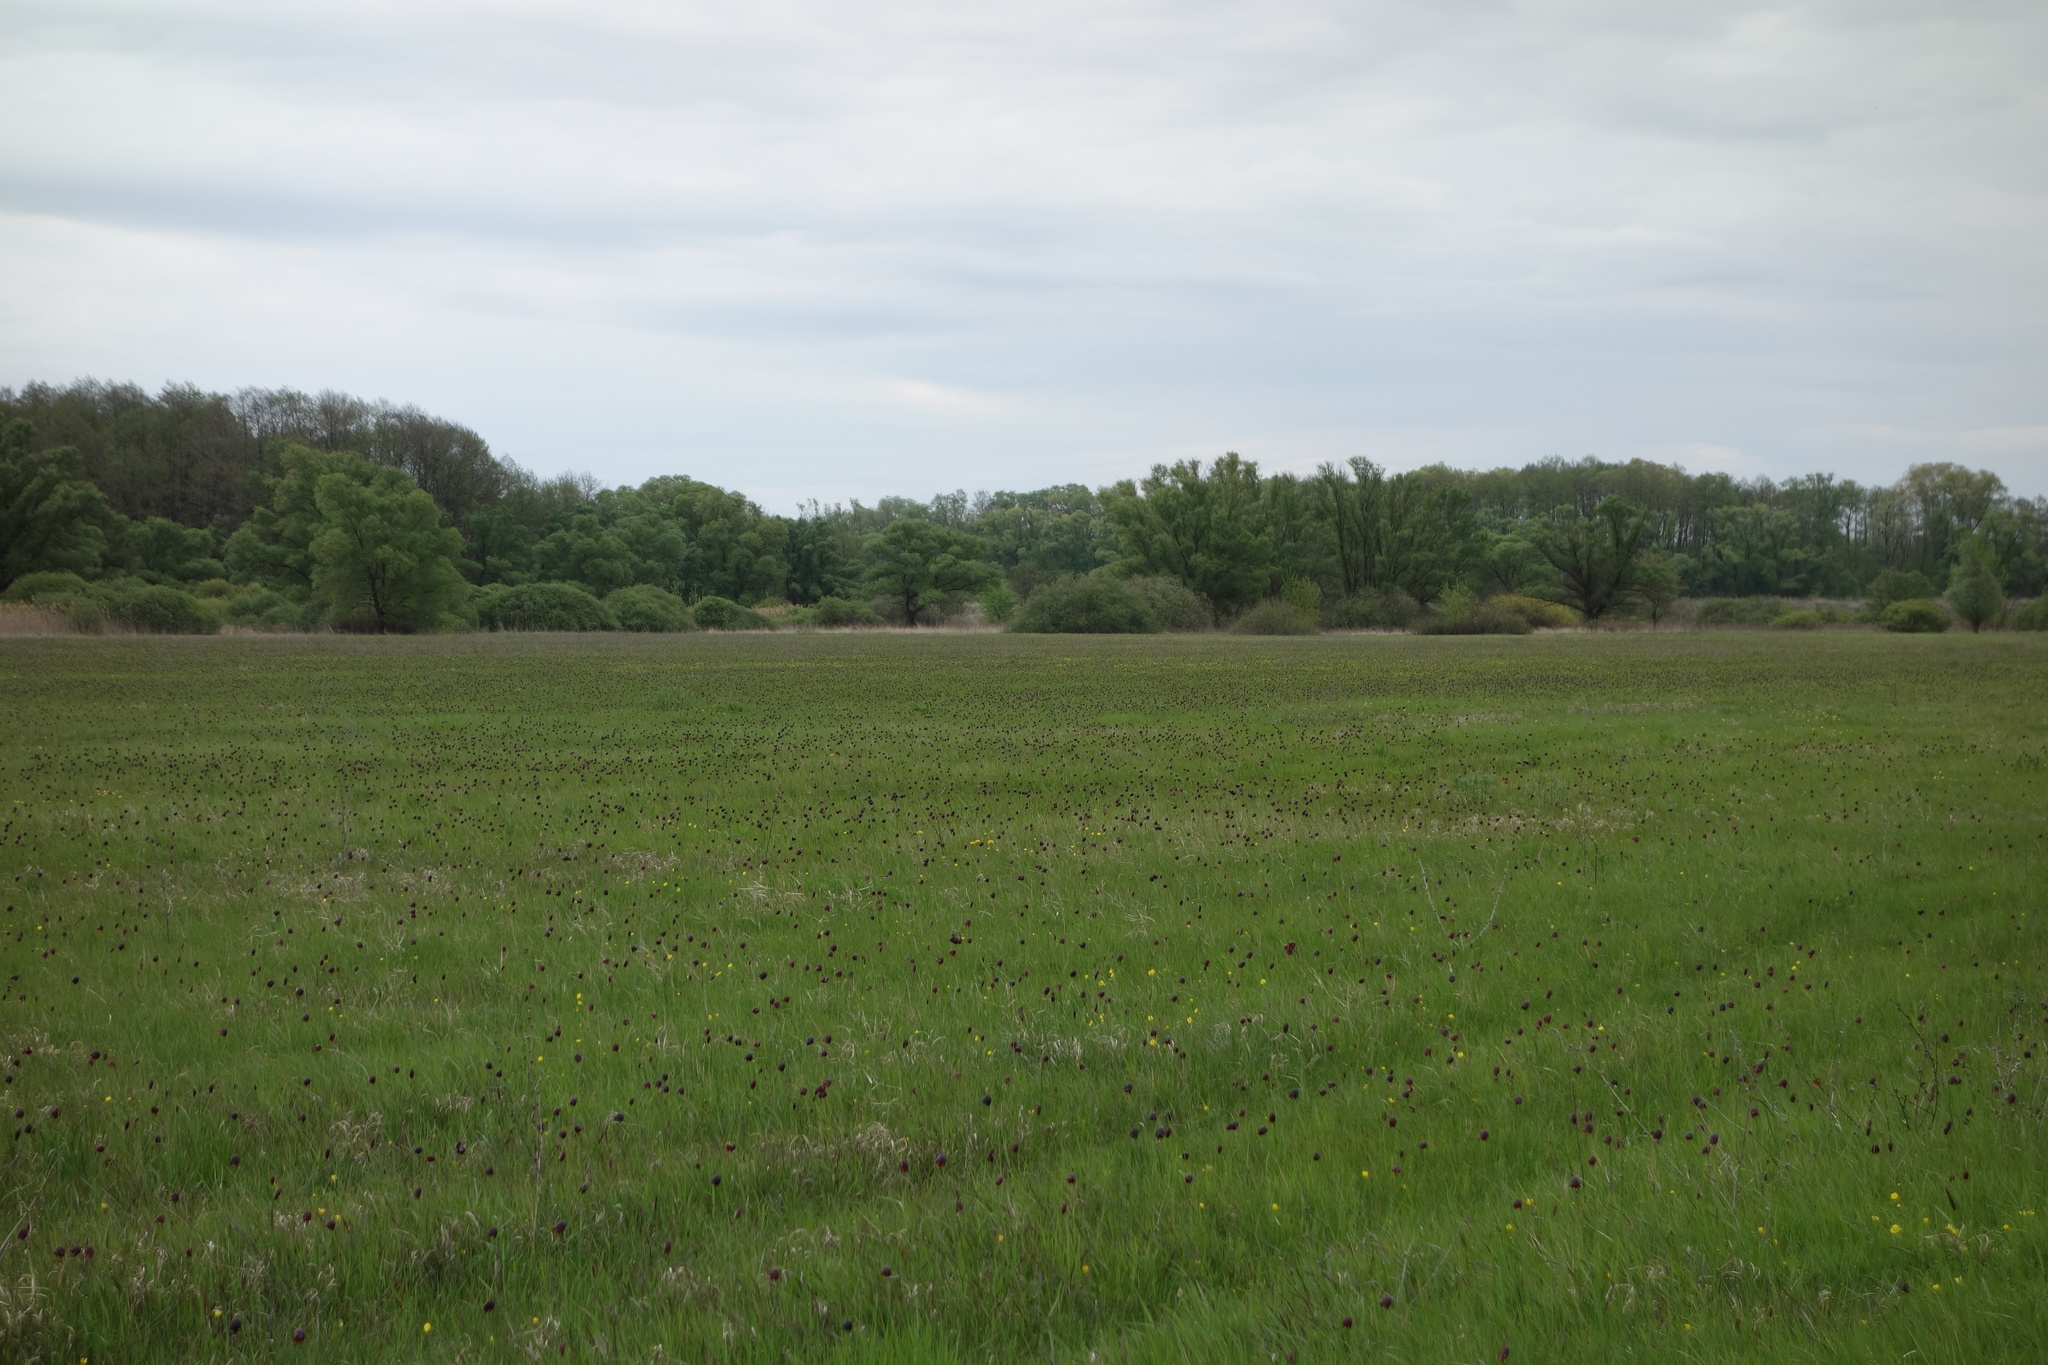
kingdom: Plantae
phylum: Tracheophyta
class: Liliopsida
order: Liliales
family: Liliaceae
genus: Fritillaria
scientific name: Fritillaria meleagroides
